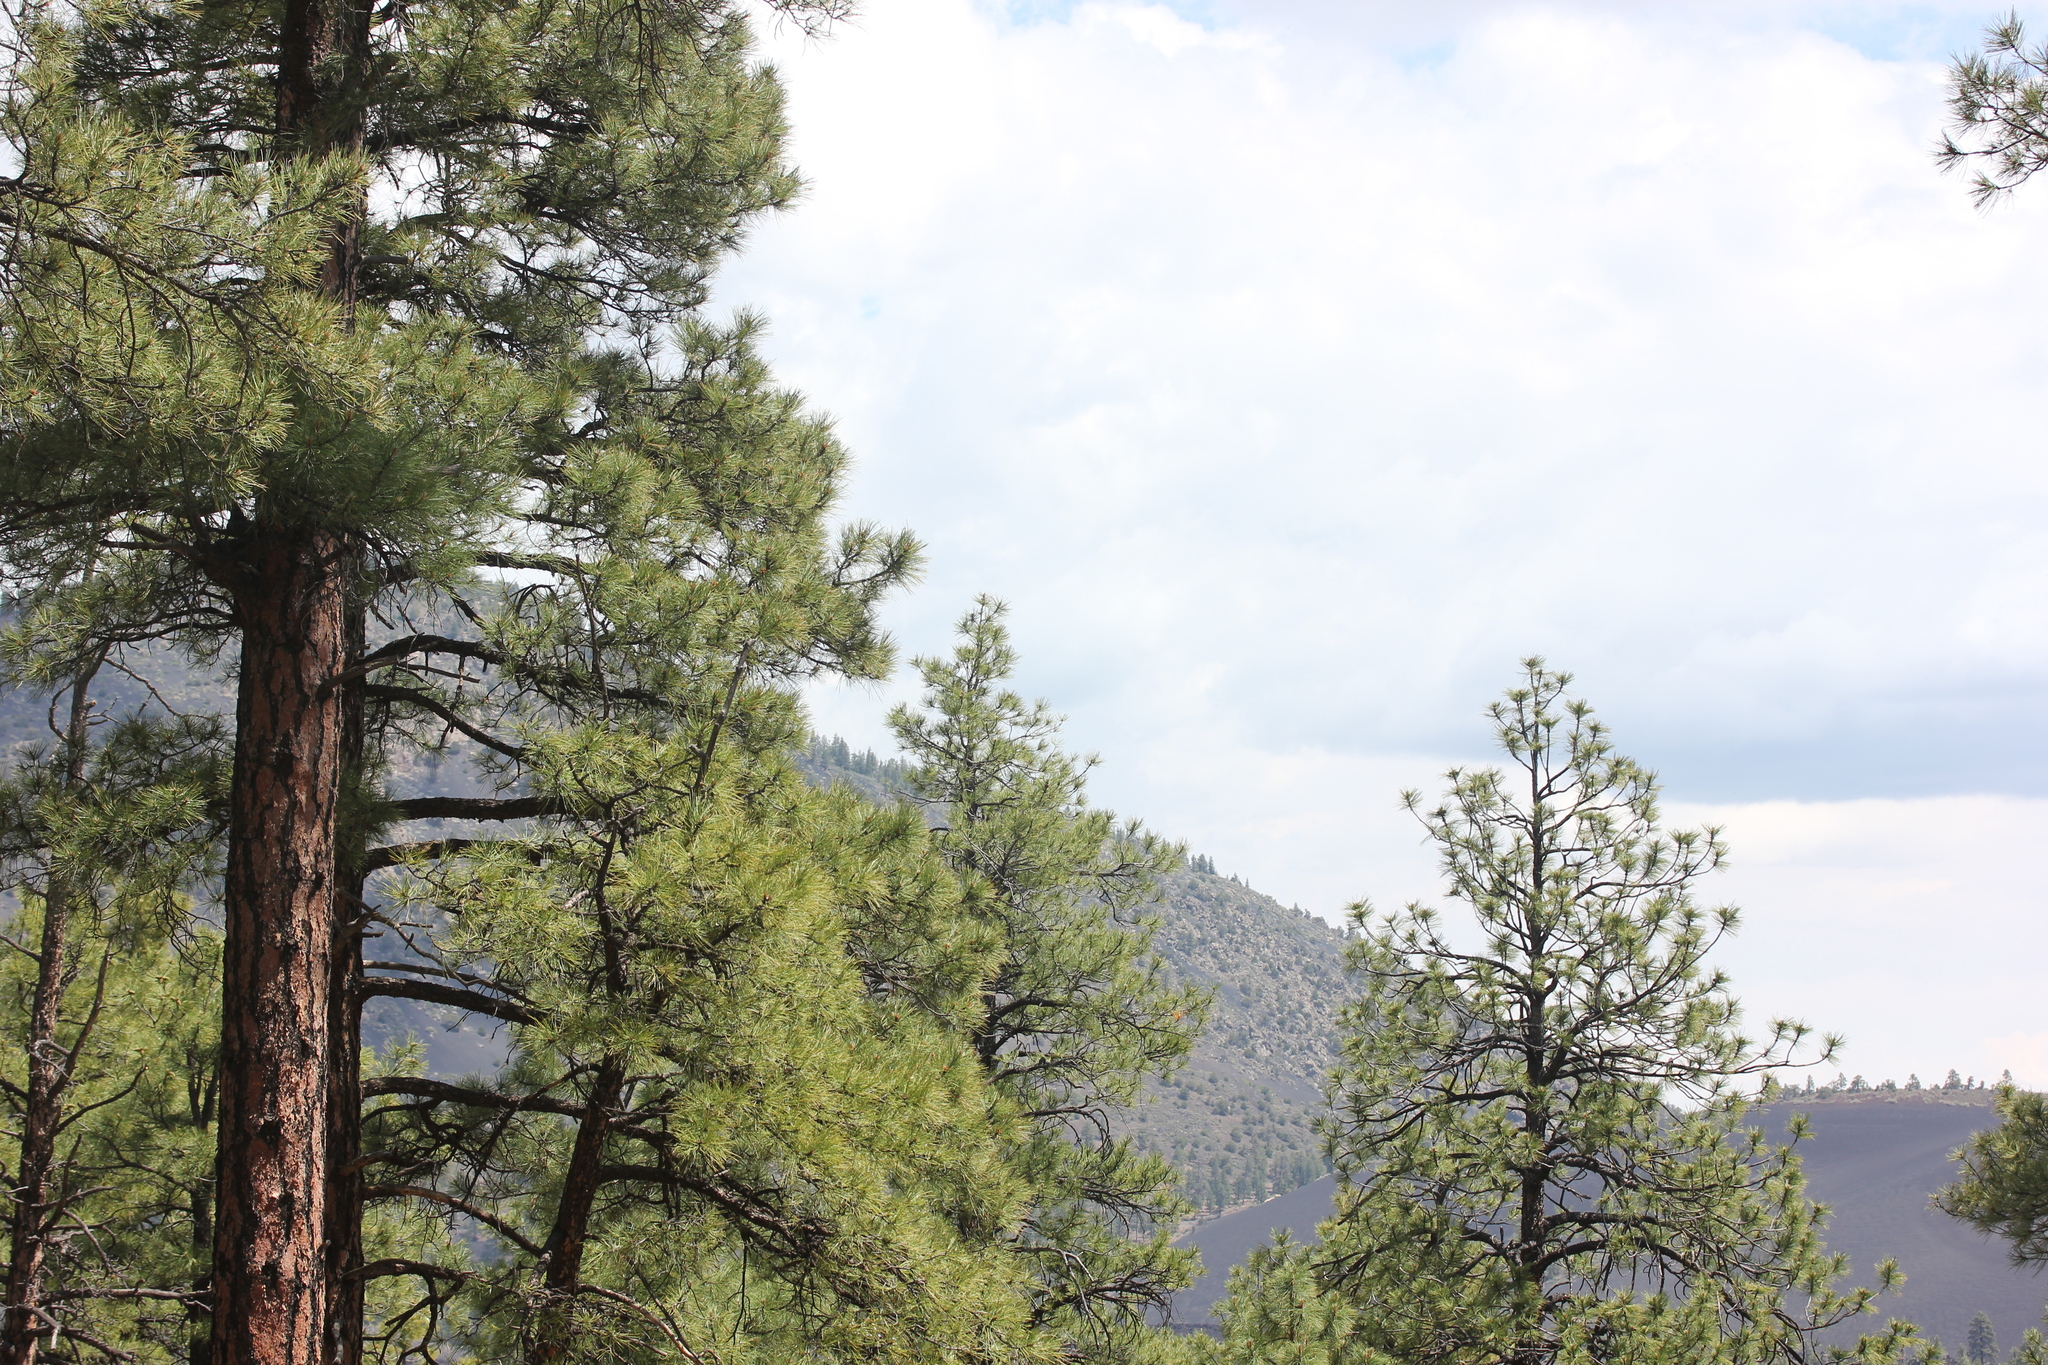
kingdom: Plantae
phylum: Tracheophyta
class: Pinopsida
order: Pinales
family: Pinaceae
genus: Pinus
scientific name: Pinus ponderosa
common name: Western yellow-pine
